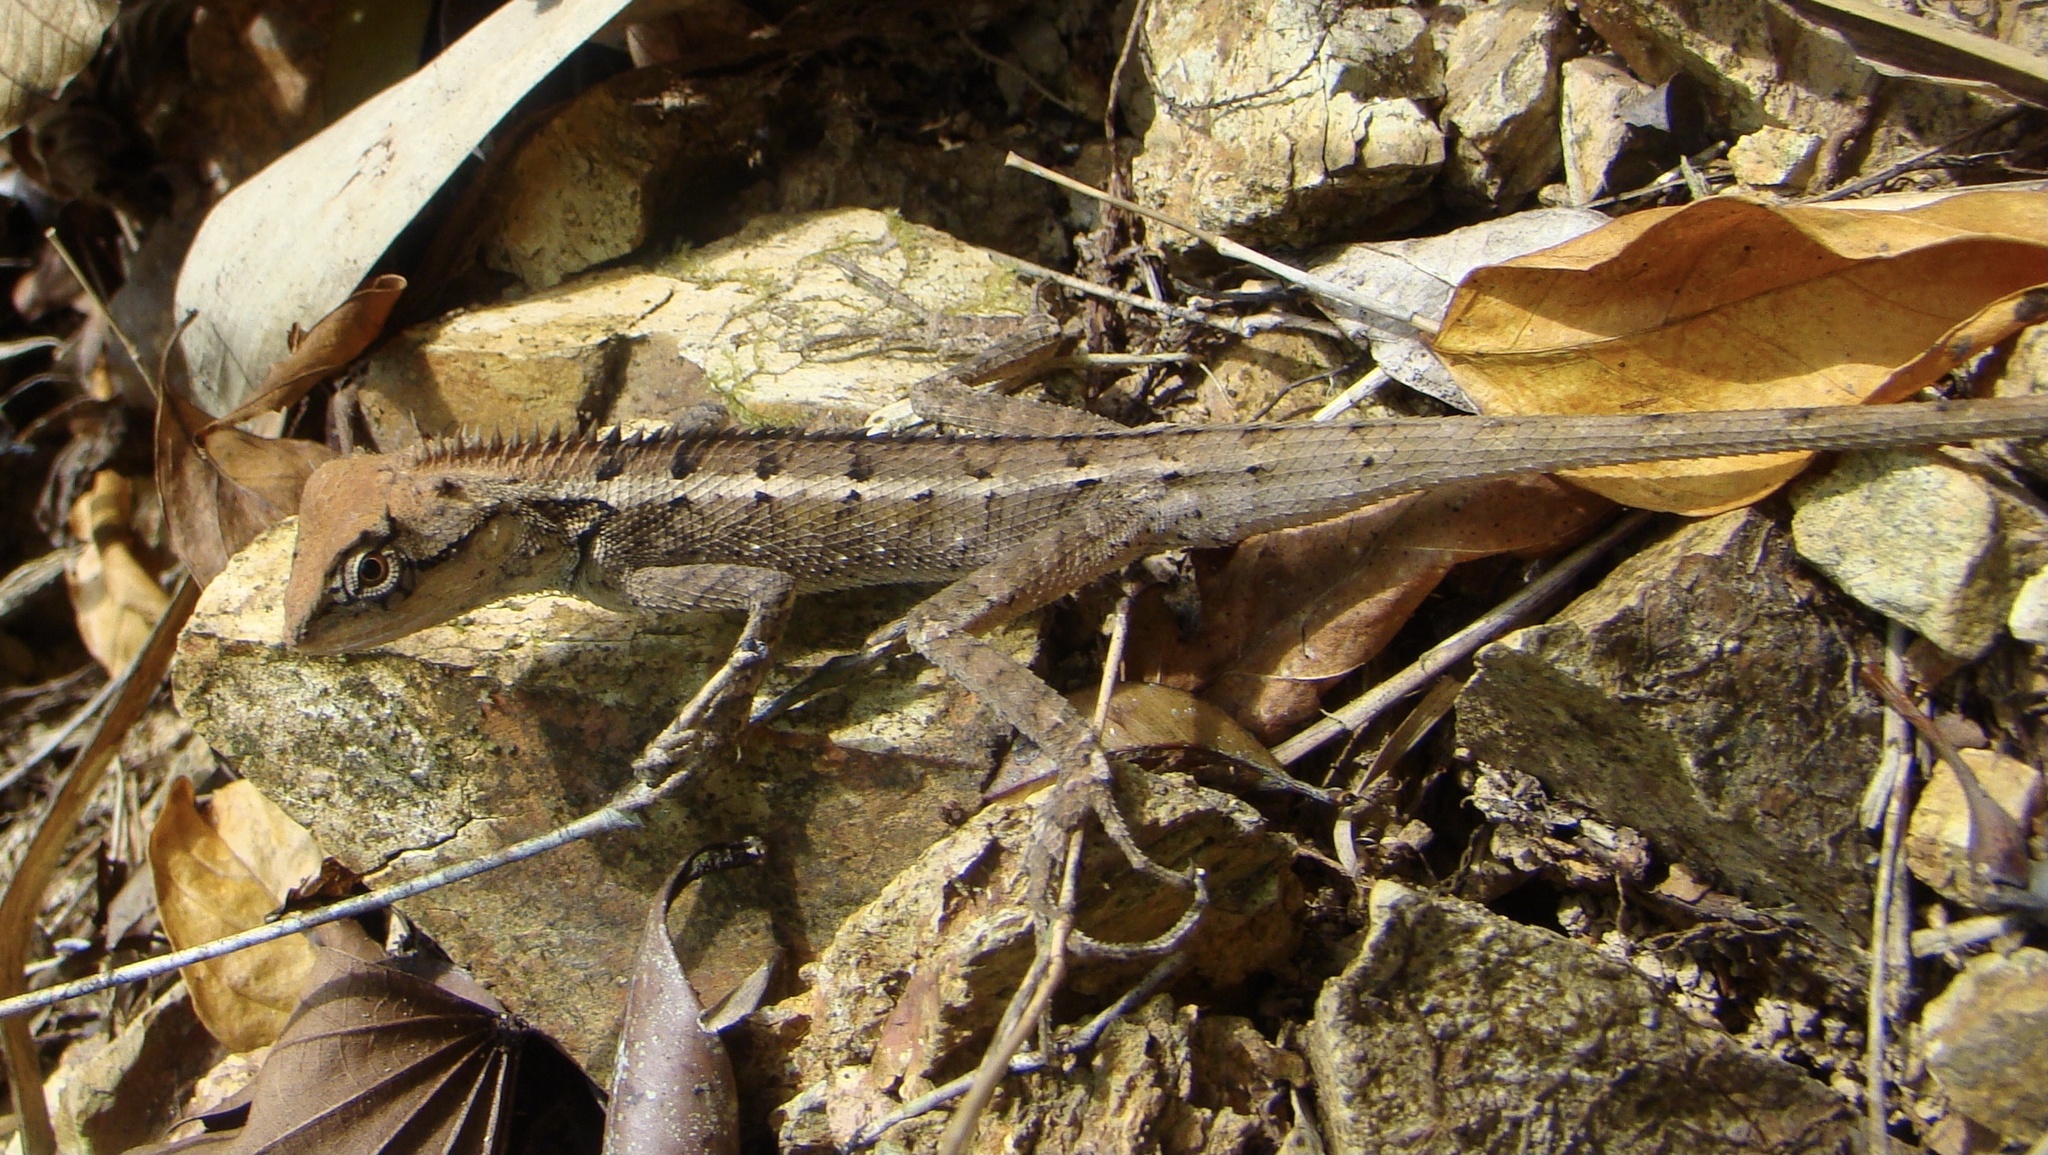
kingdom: Animalia
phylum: Chordata
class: Squamata
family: Agamidae
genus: Calotes
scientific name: Calotes emma
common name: Thailand bloodsucker
